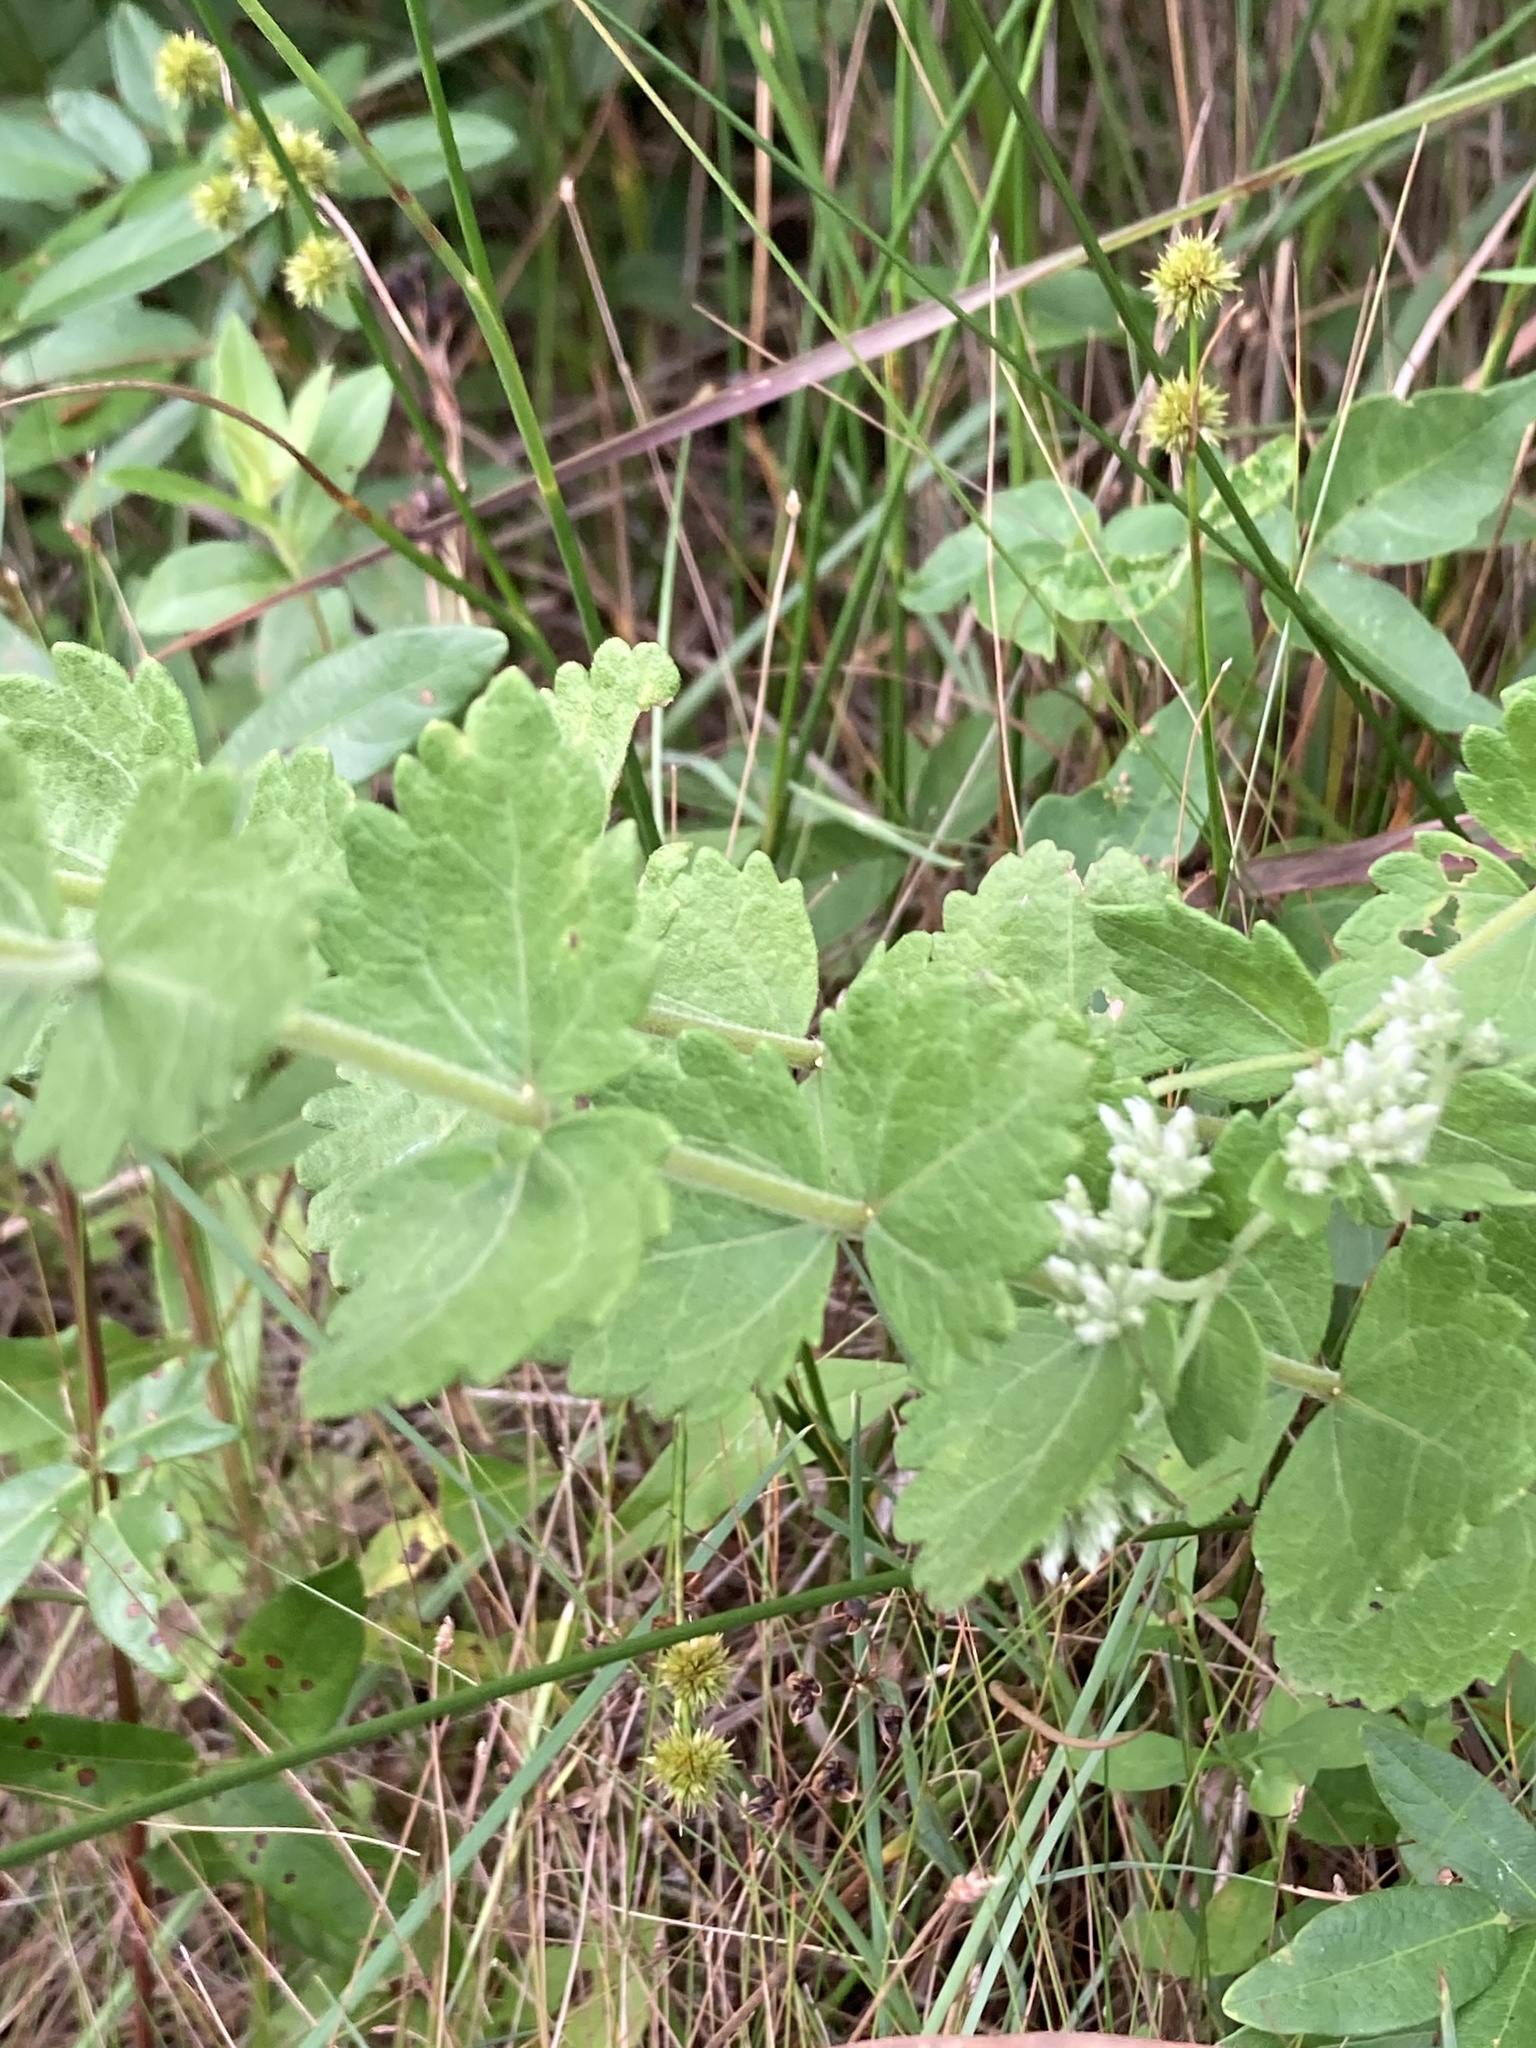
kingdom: Plantae
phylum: Tracheophyta
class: Magnoliopsida
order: Asterales
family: Asteraceae
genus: Eupatorium
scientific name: Eupatorium rotundifolium
